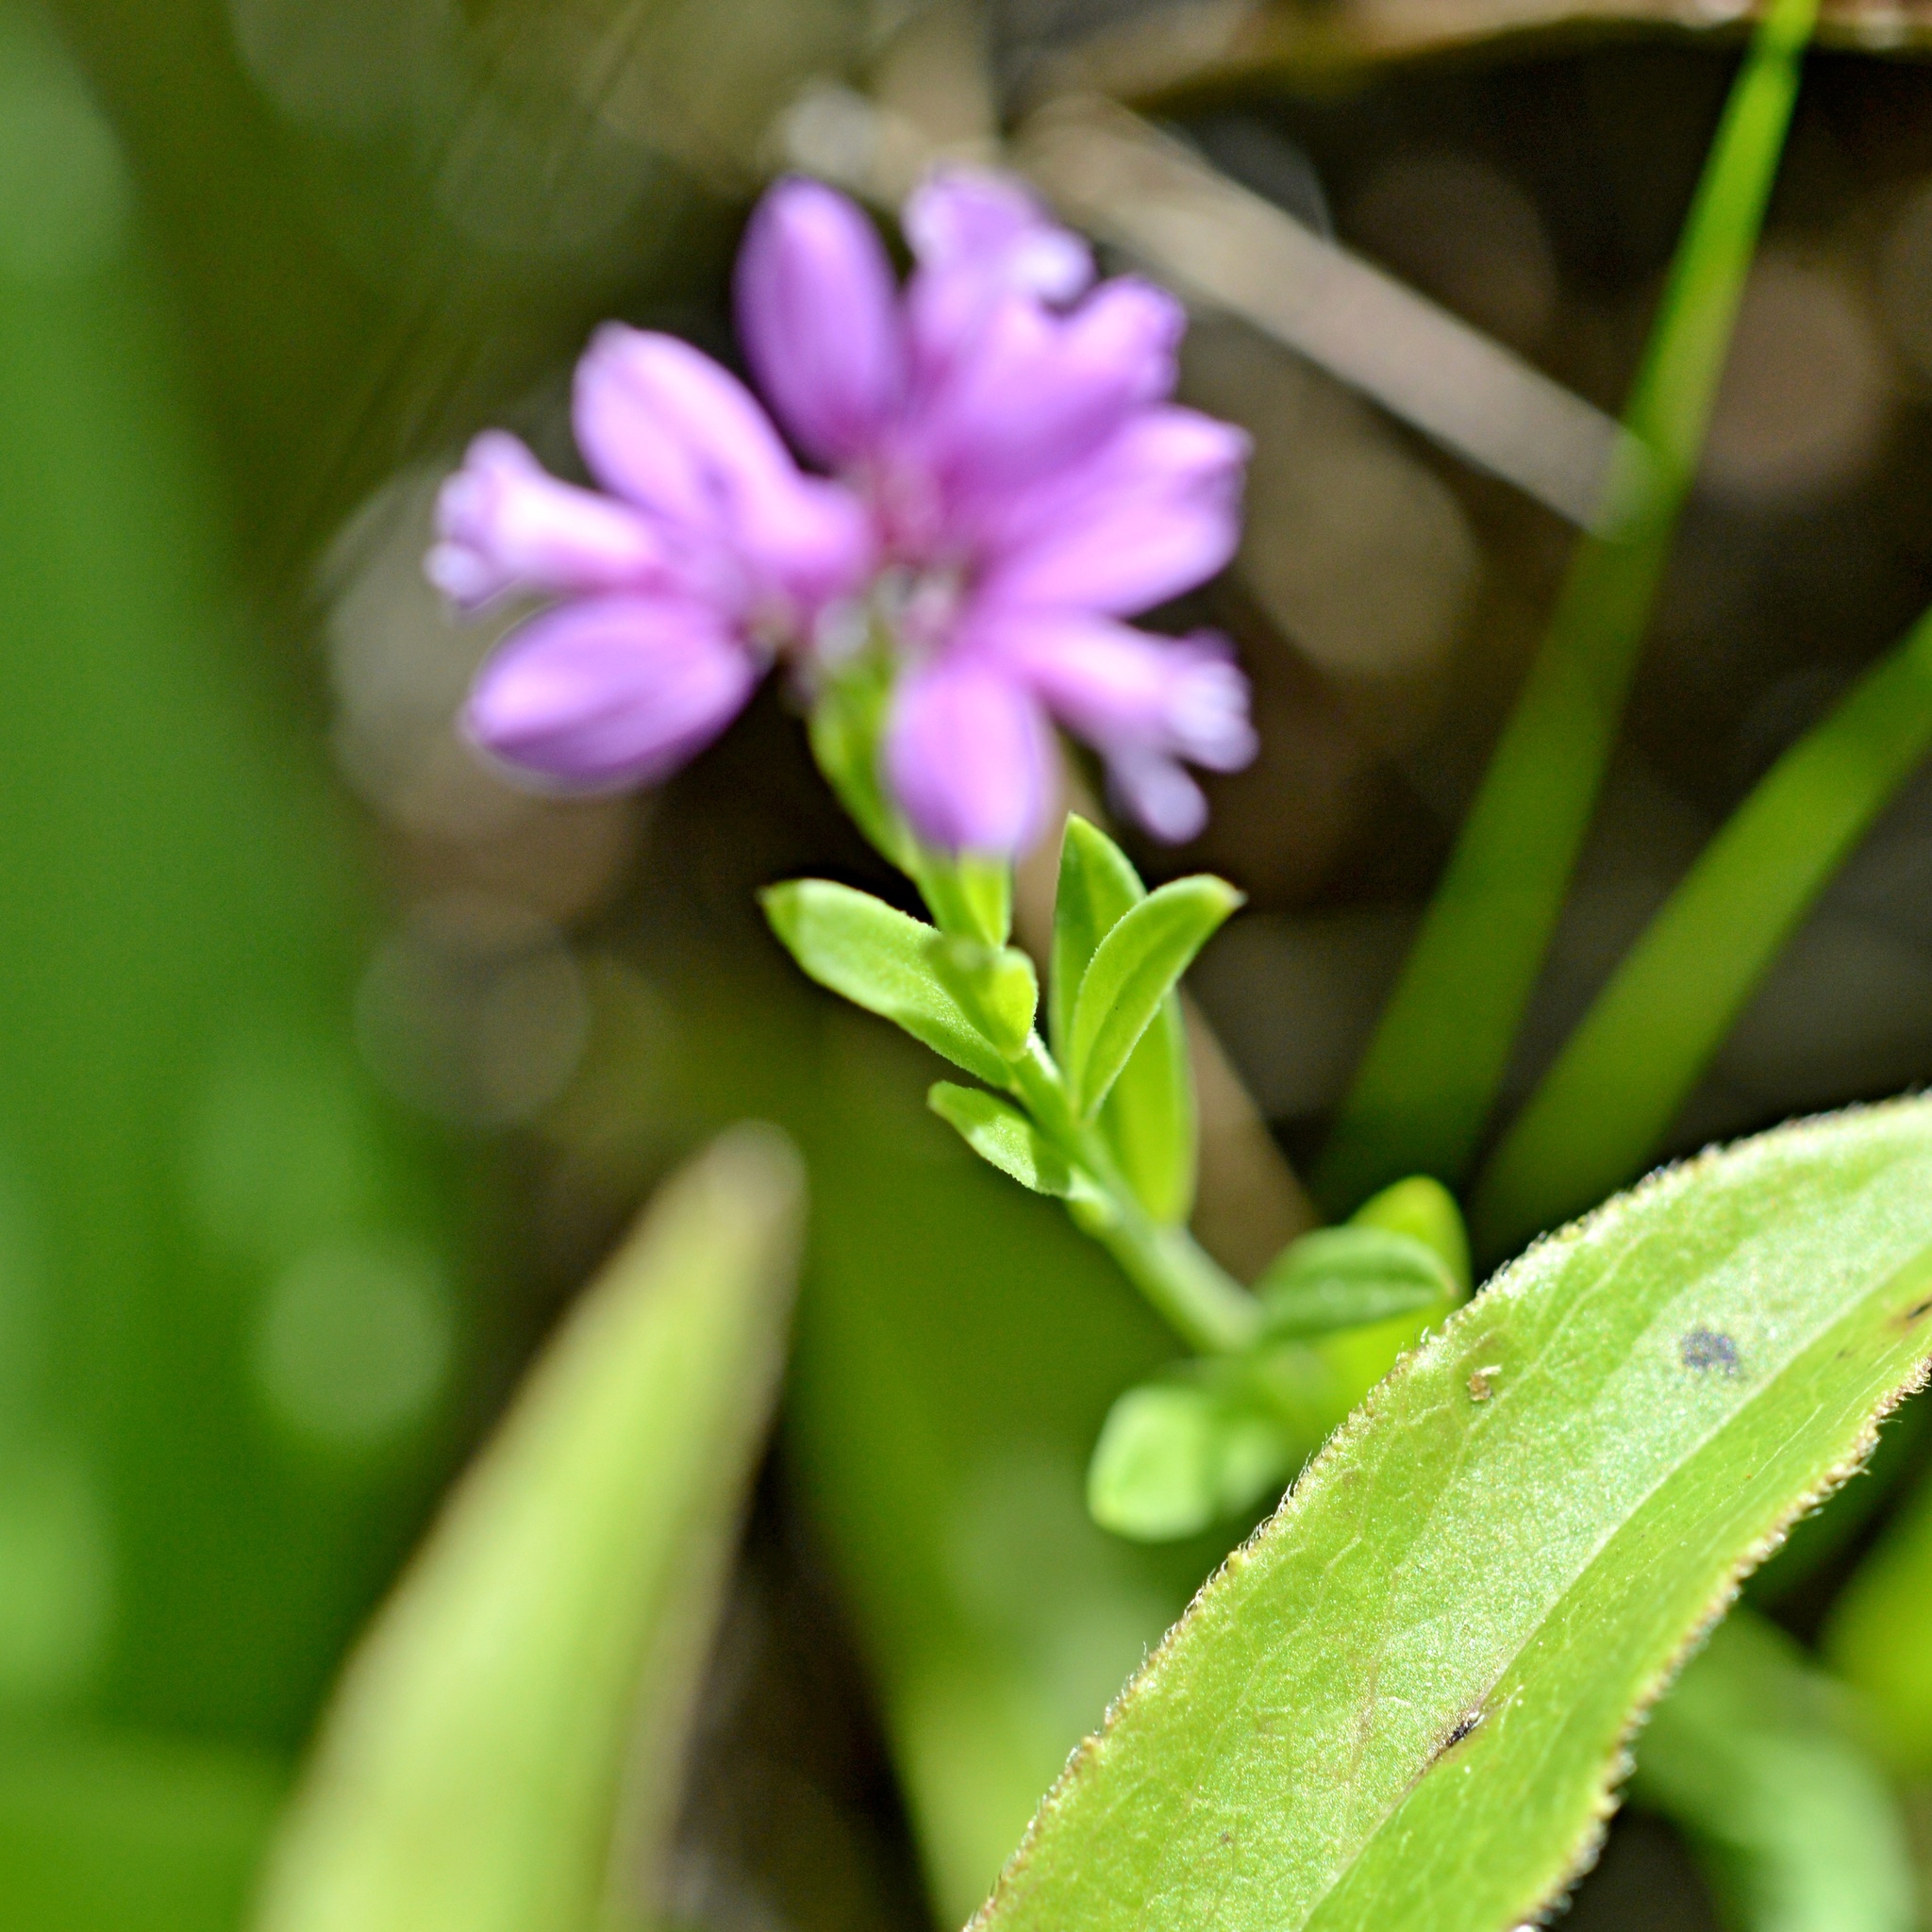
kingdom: Plantae
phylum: Tracheophyta
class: Magnoliopsida
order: Fabales
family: Polygalaceae
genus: Polygala
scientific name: Polygala comosa
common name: Tufted milkwort
